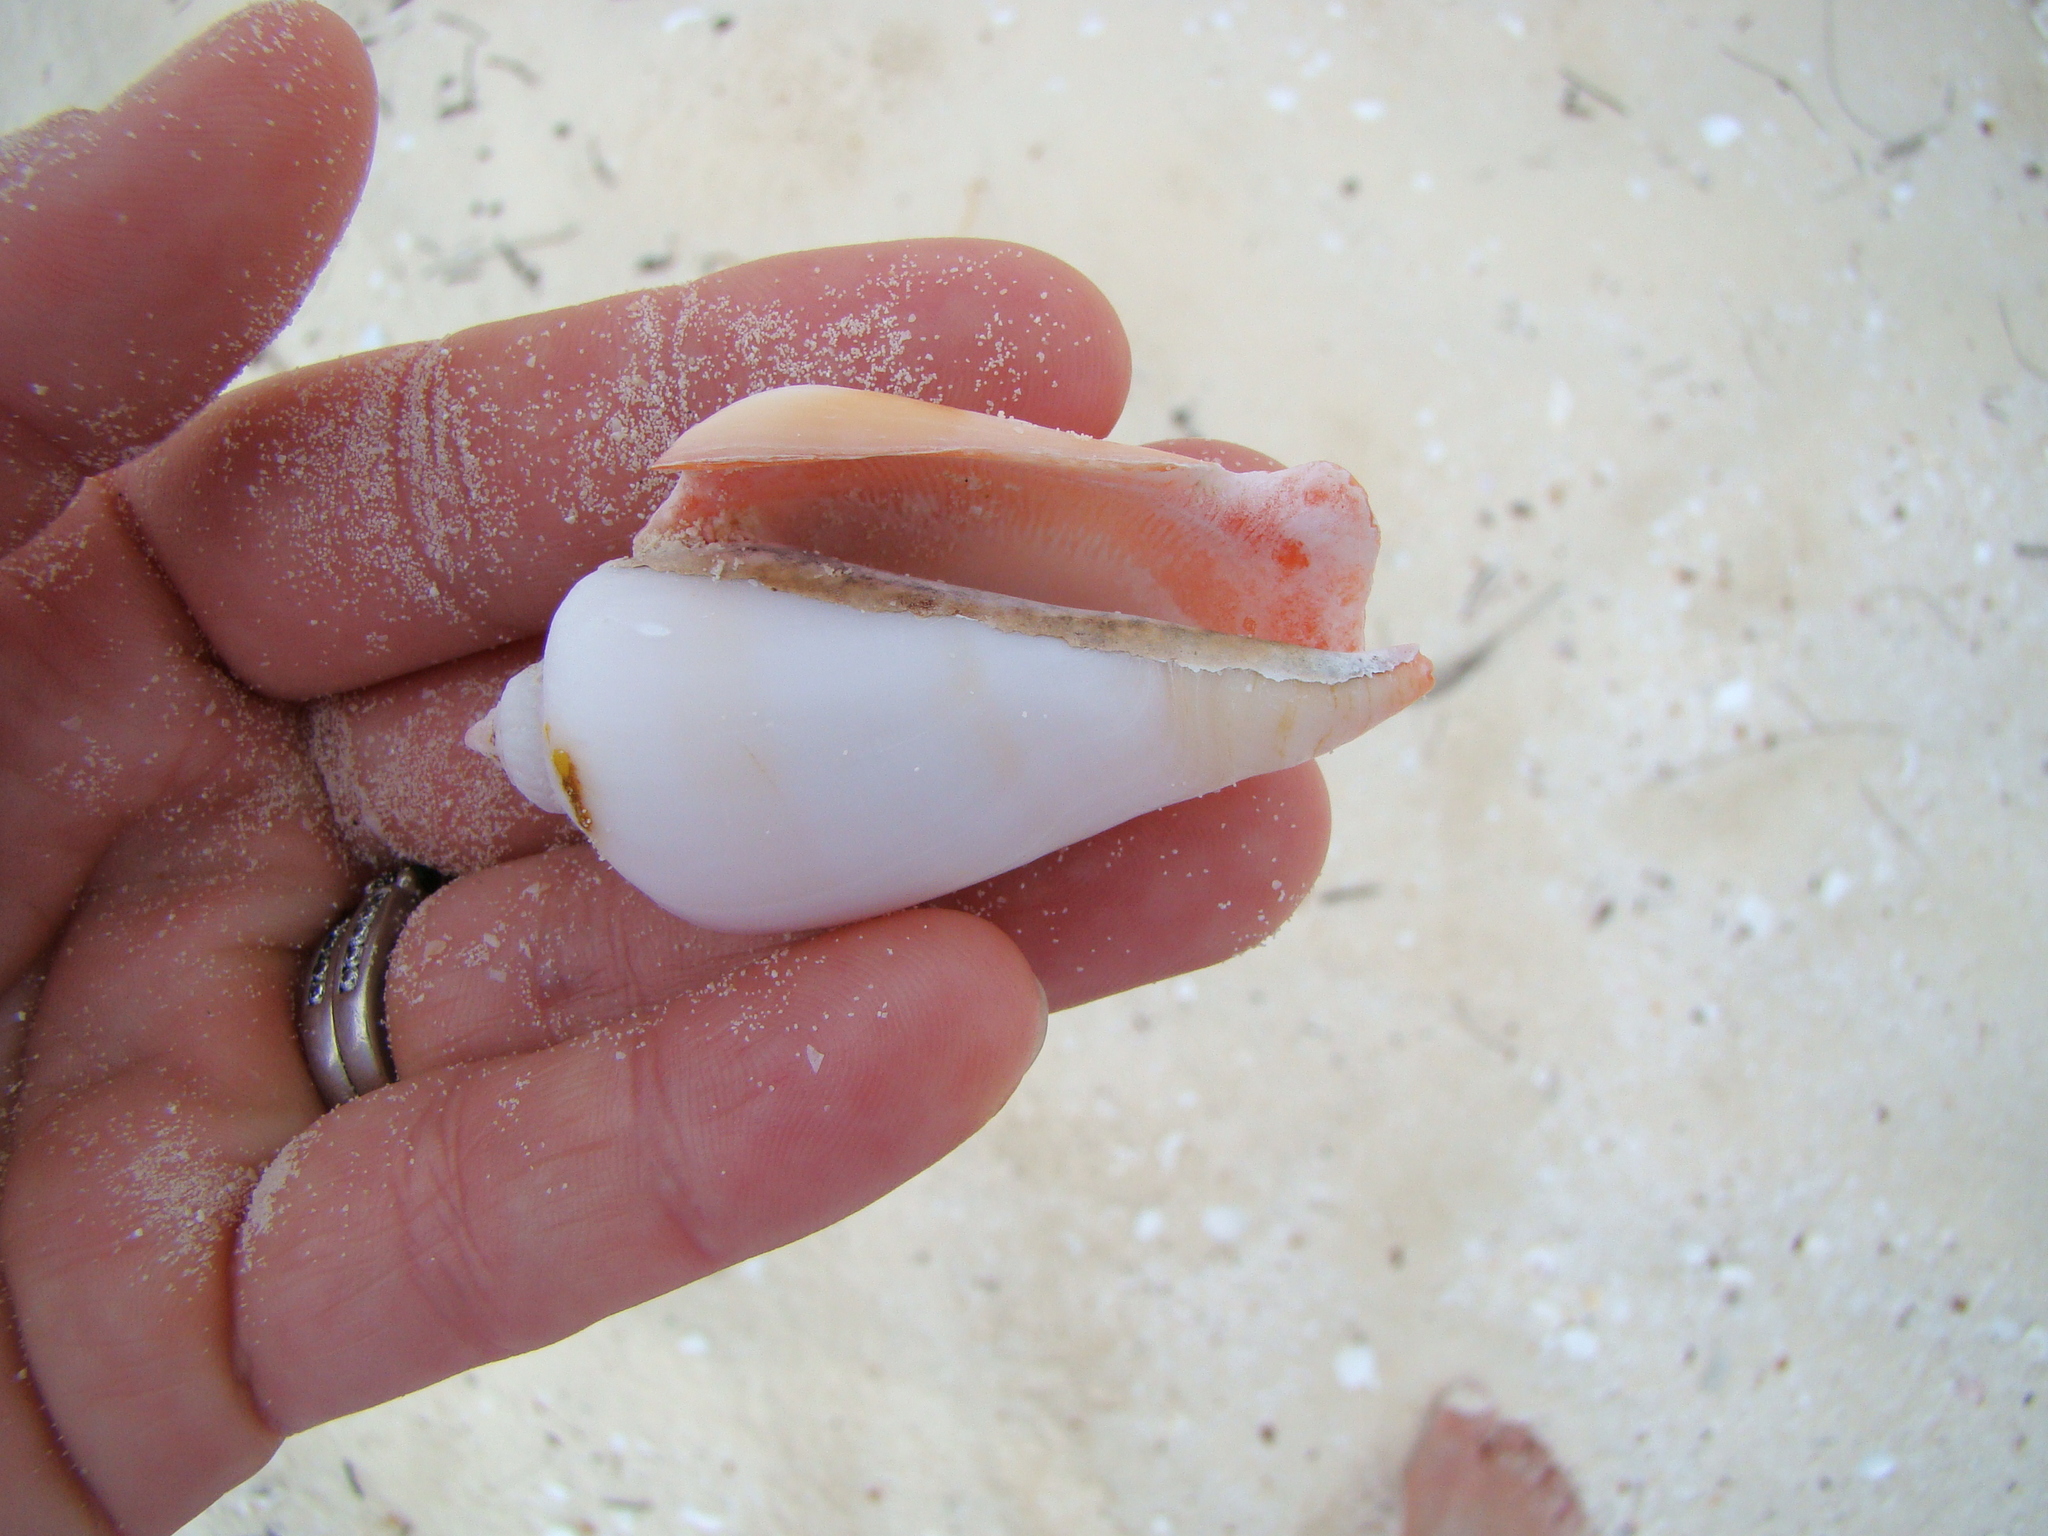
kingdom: Animalia
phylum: Mollusca
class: Gastropoda
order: Littorinimorpha
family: Strombidae
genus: Conomurex
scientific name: Conomurex luhuanus
